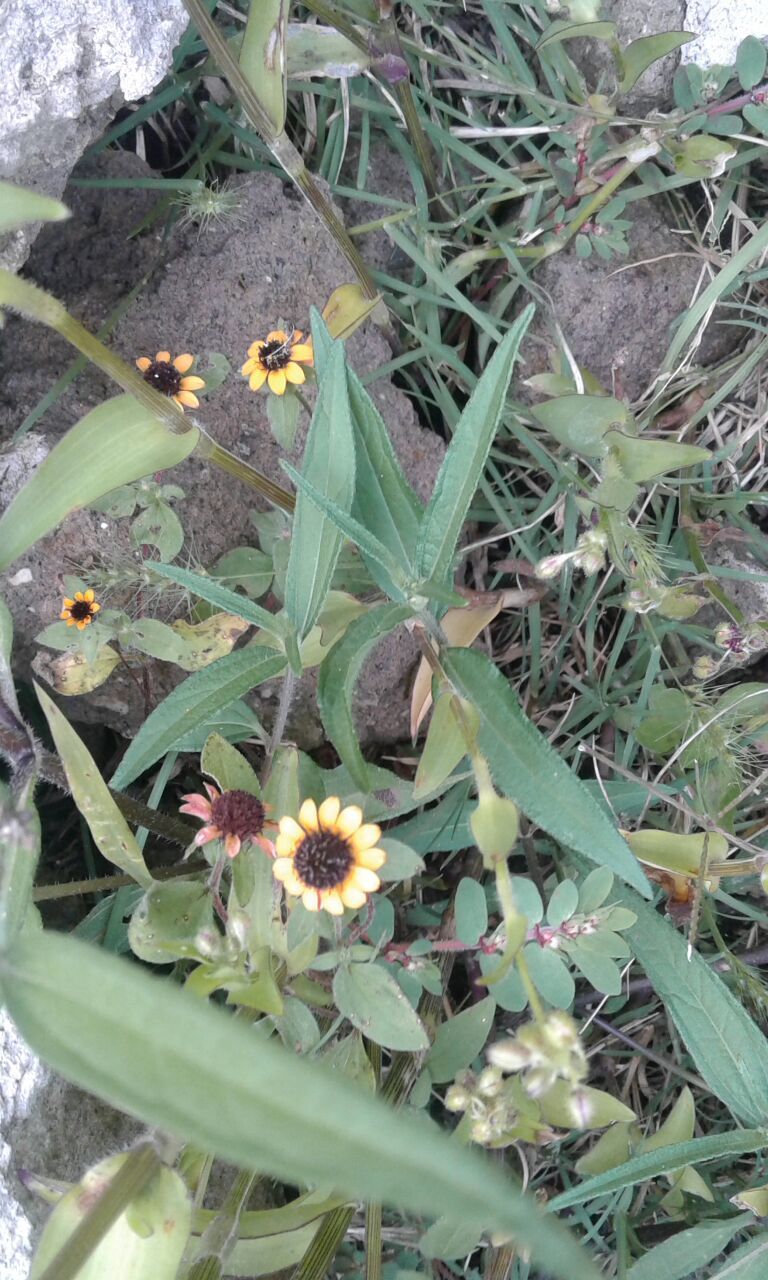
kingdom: Plantae
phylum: Tracheophyta
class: Magnoliopsida
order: Asterales
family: Asteraceae
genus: Sanvitalia
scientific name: Sanvitalia procumbens
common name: Mexican creeping zinnia
